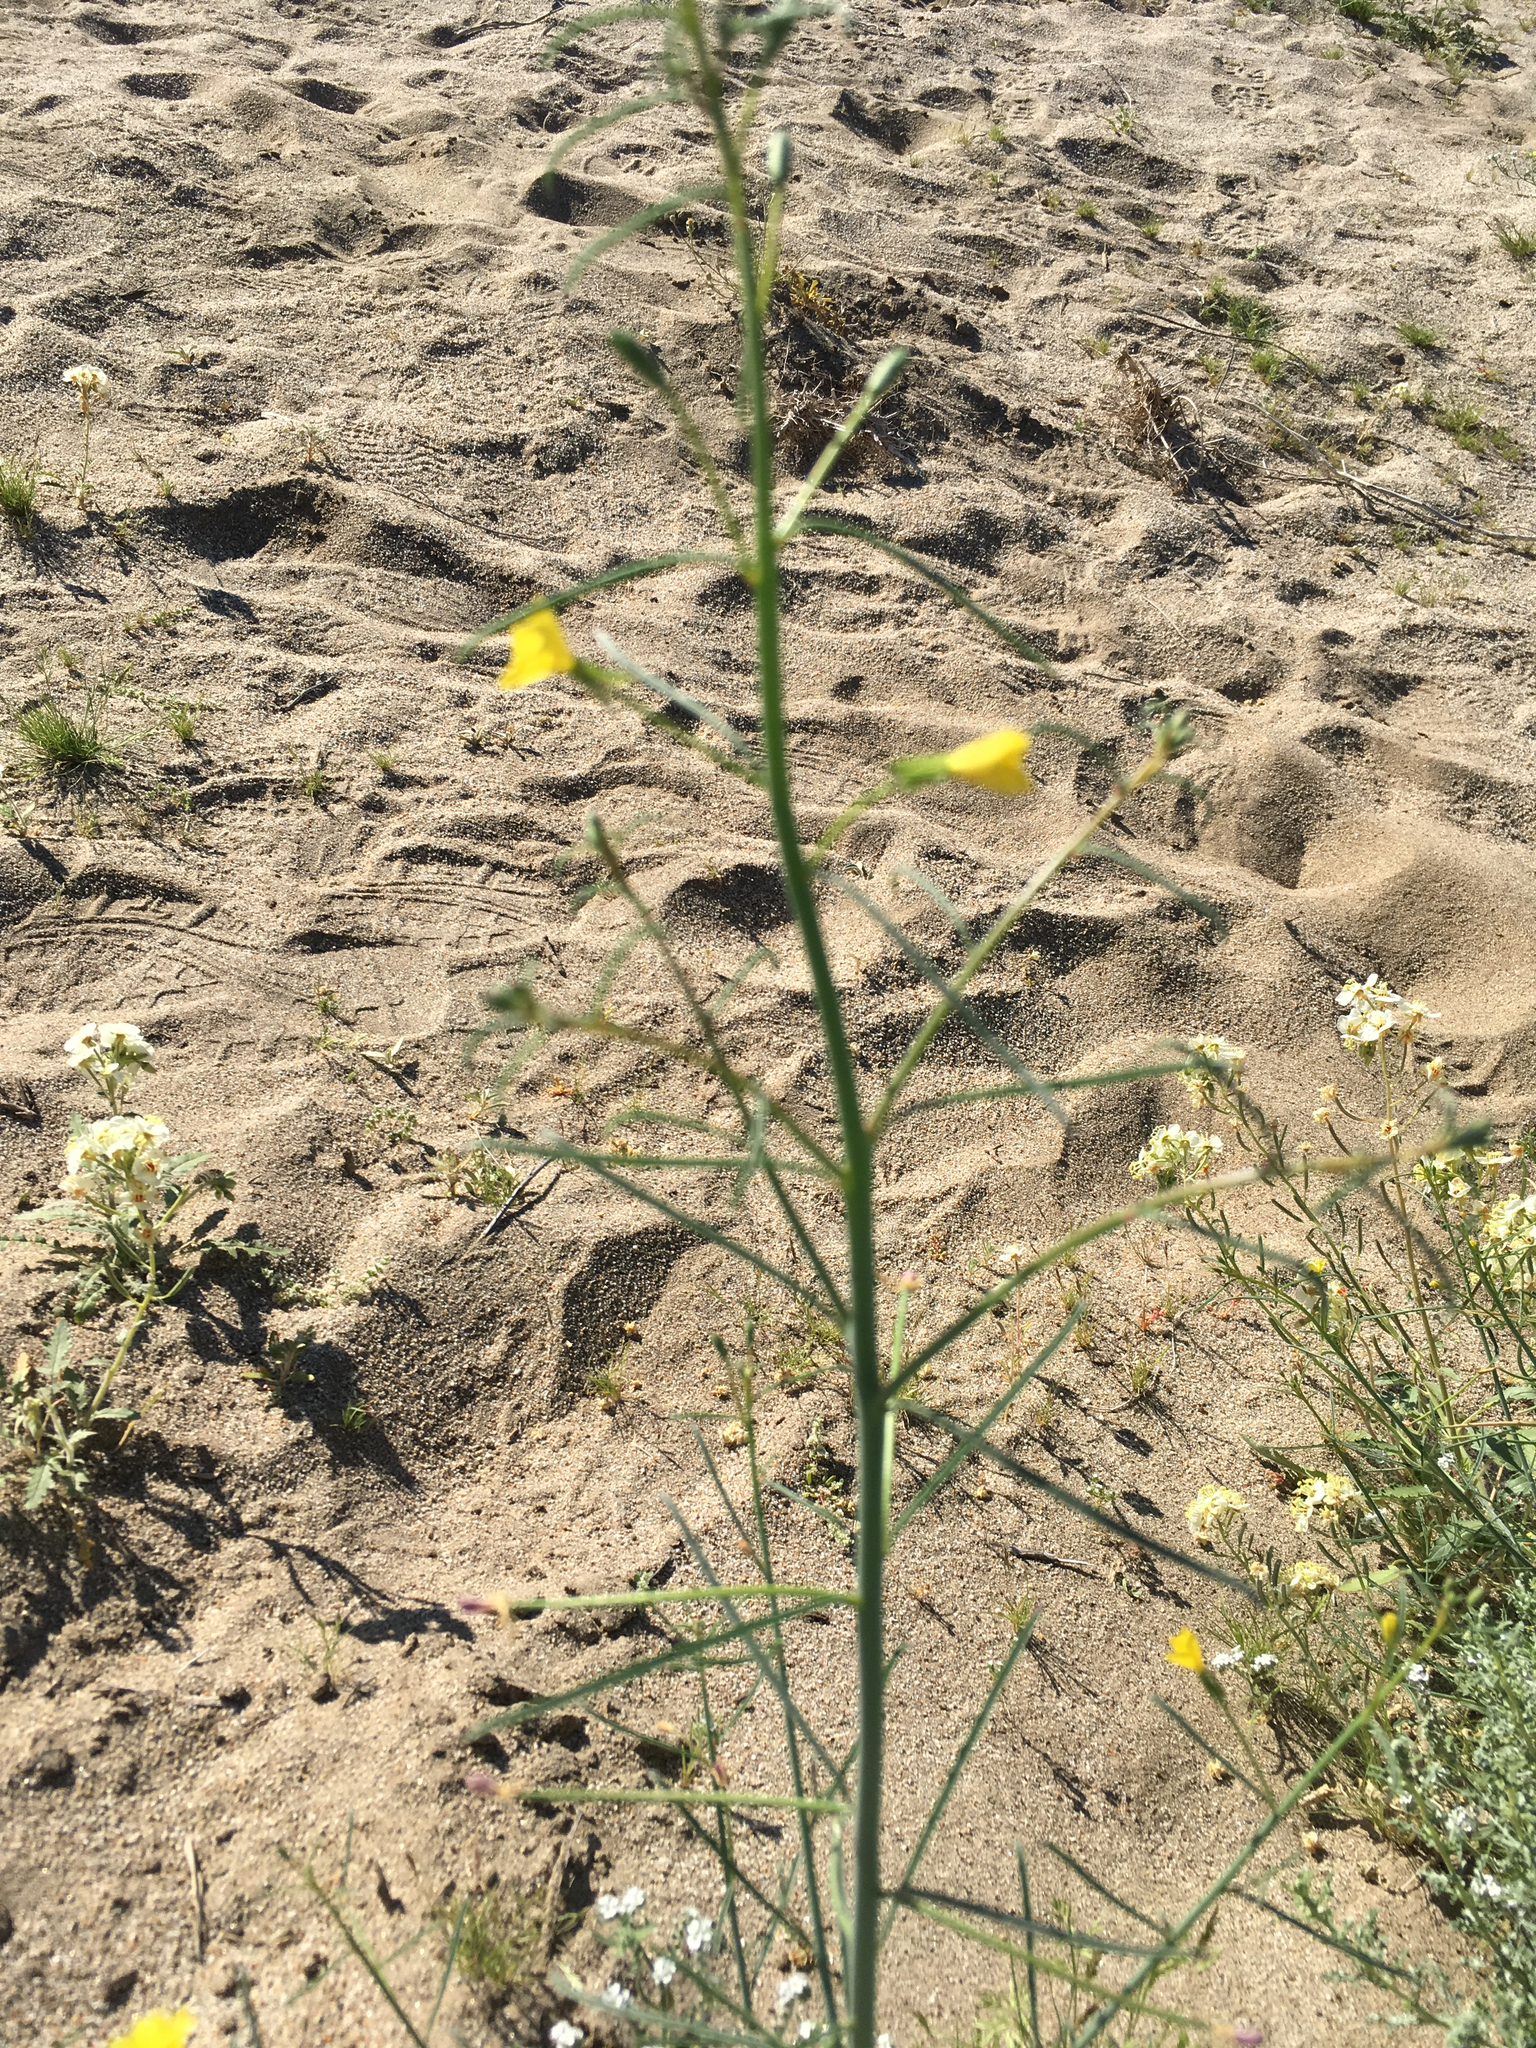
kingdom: Plantae
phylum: Tracheophyta
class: Magnoliopsida
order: Myrtales
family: Onagraceae
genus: Eulobus
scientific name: Eulobus californicus
